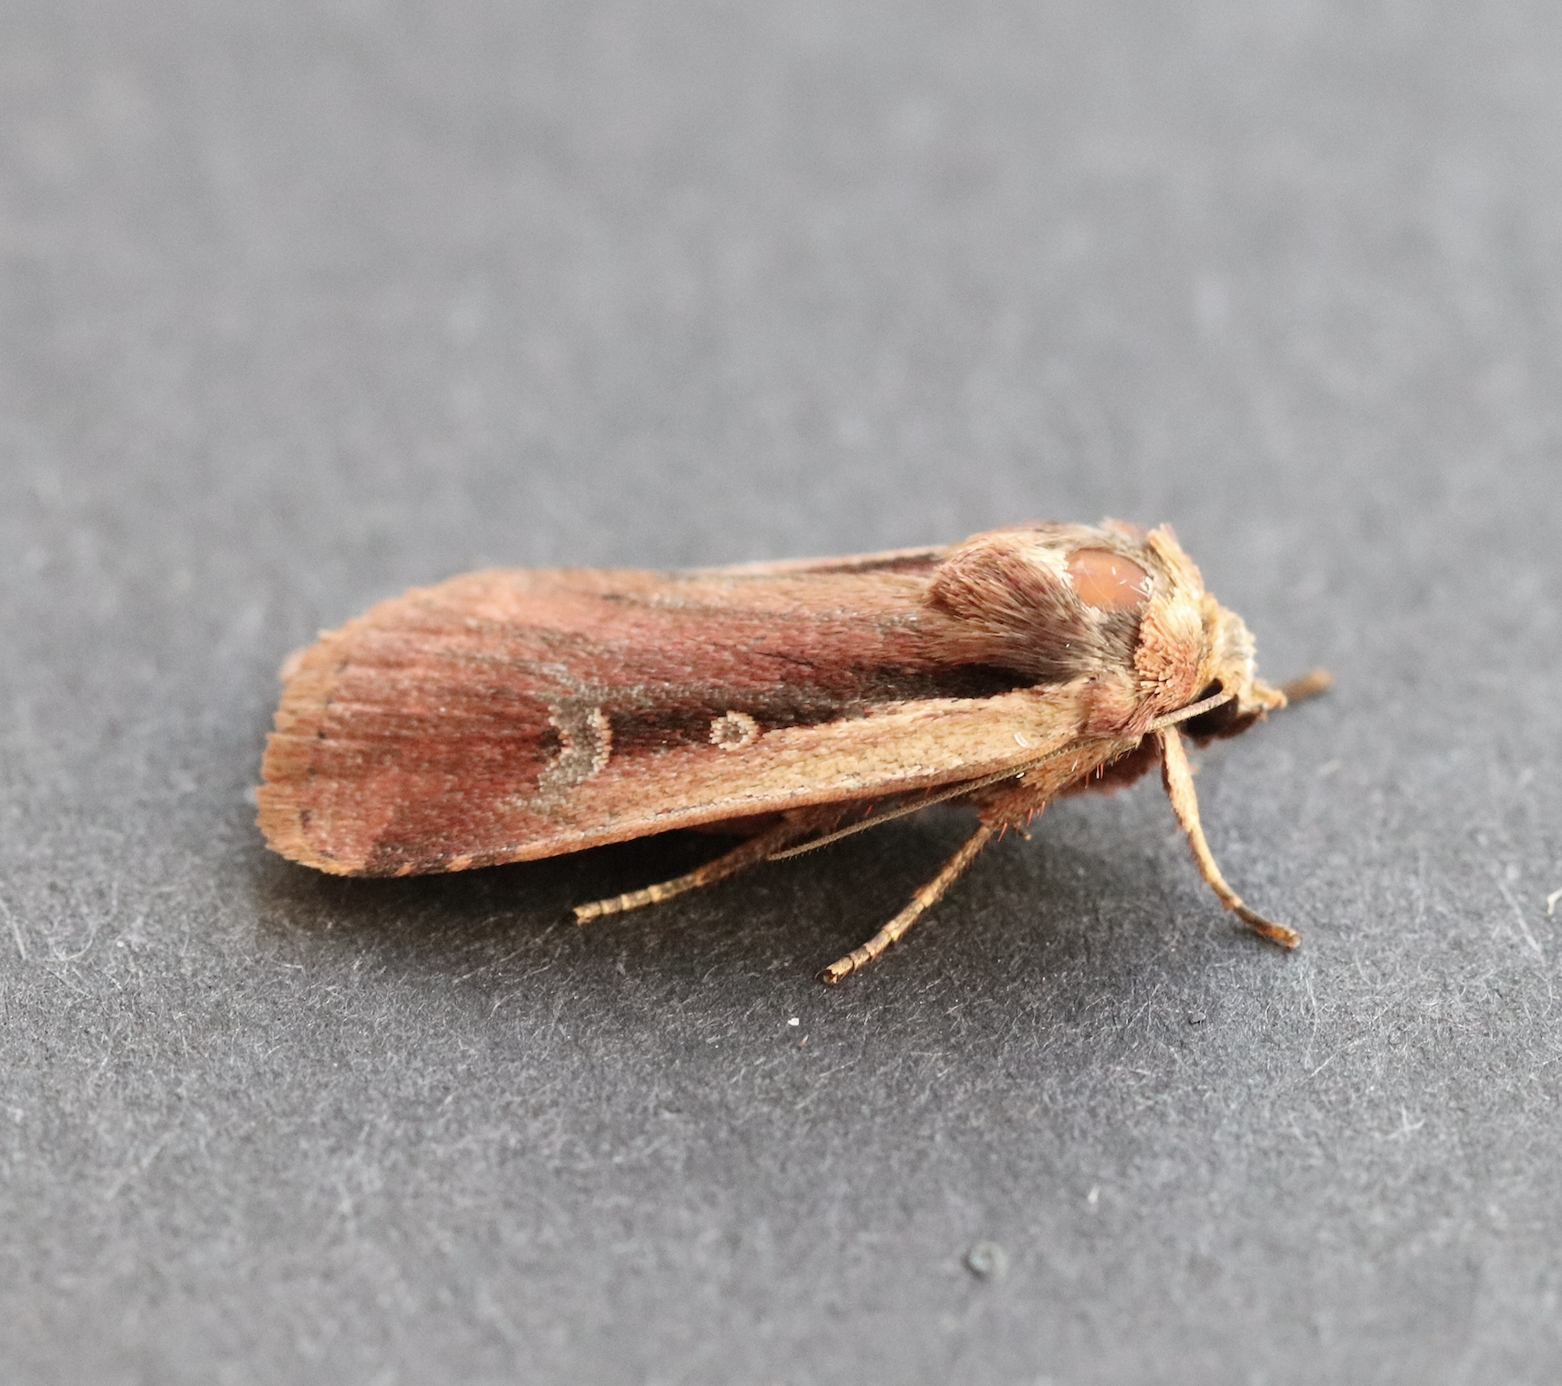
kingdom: Animalia
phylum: Arthropoda
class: Insecta
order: Lepidoptera
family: Noctuidae
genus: Ochropleura
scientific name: Ochropleura plecta
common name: Flame shoulder
